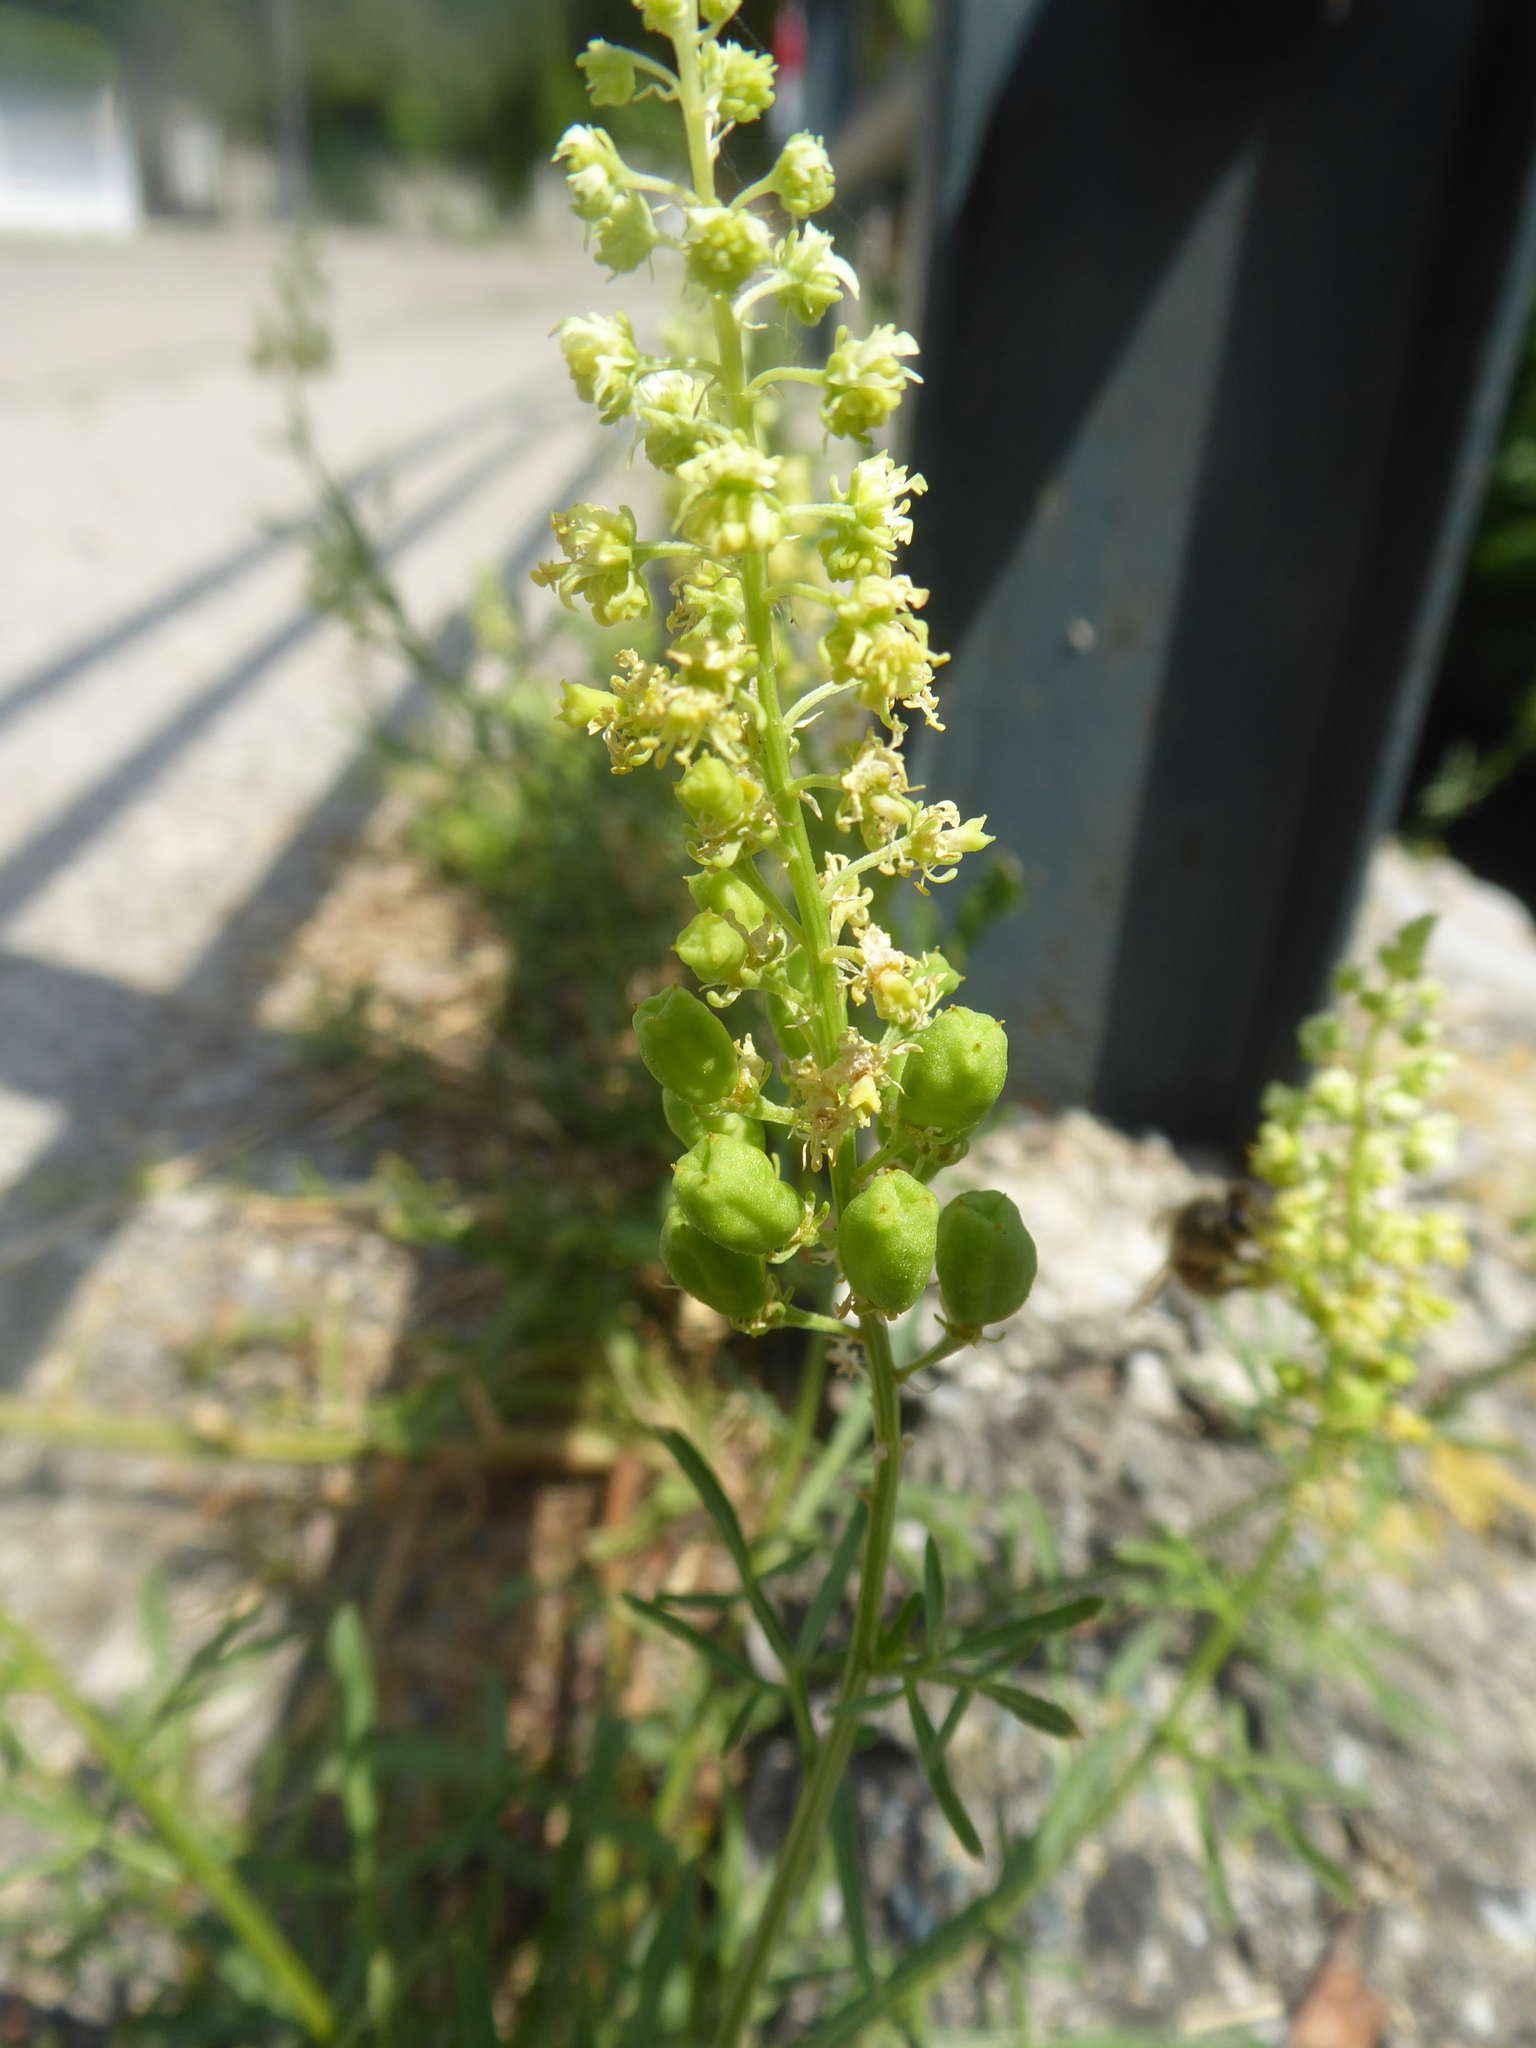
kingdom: Plantae
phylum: Tracheophyta
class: Magnoliopsida
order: Brassicales
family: Resedaceae
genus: Reseda
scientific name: Reseda lutea
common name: Wild mignonette
